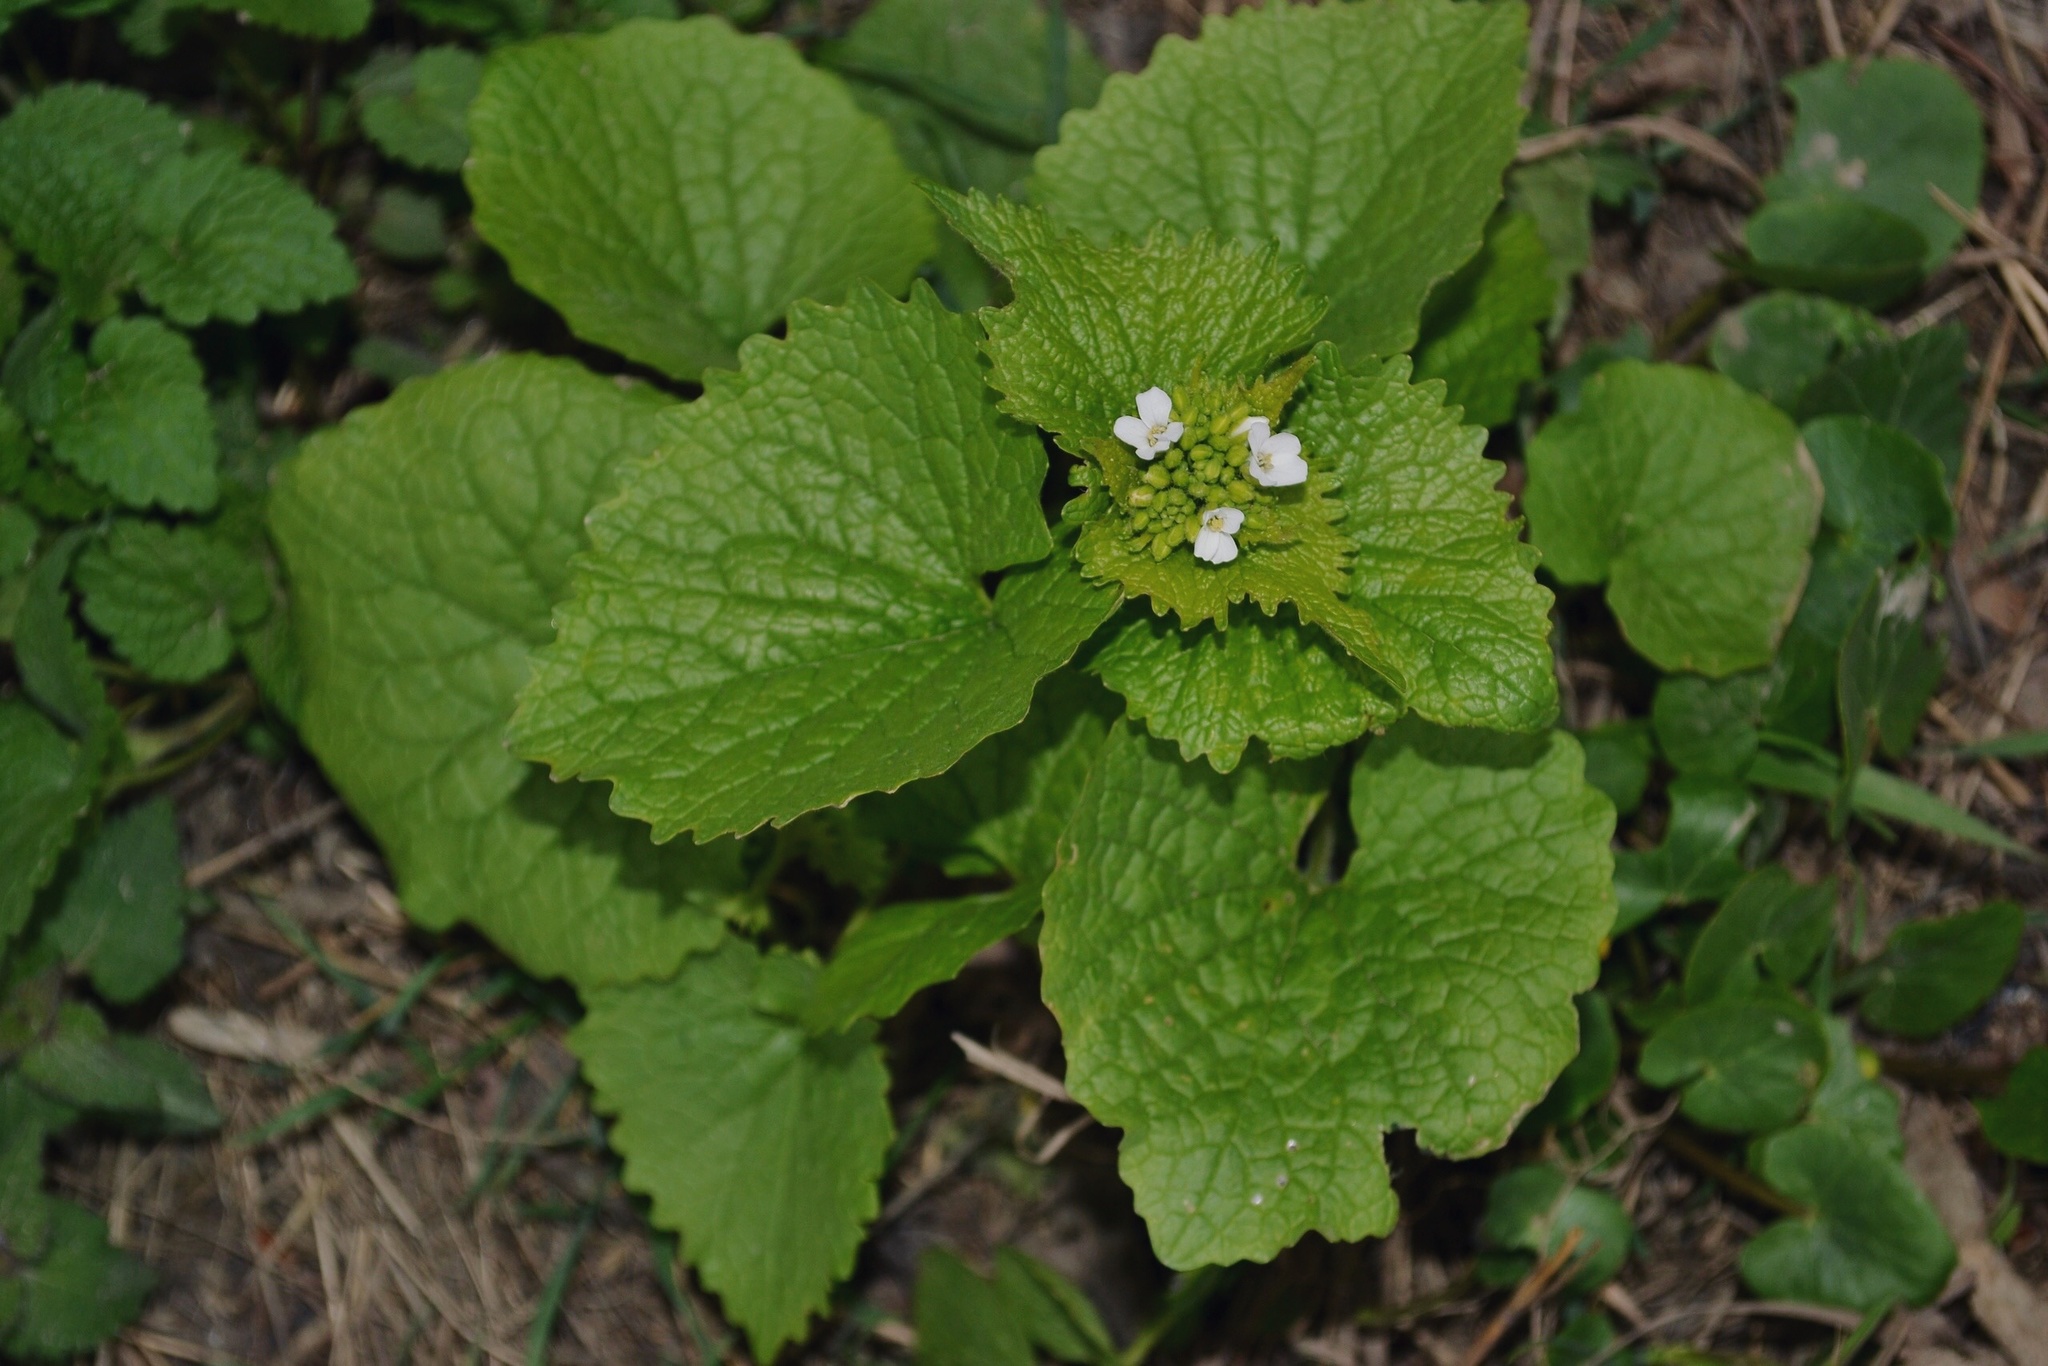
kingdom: Plantae
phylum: Tracheophyta
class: Magnoliopsida
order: Brassicales
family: Brassicaceae
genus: Alliaria
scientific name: Alliaria petiolata
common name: Garlic mustard
